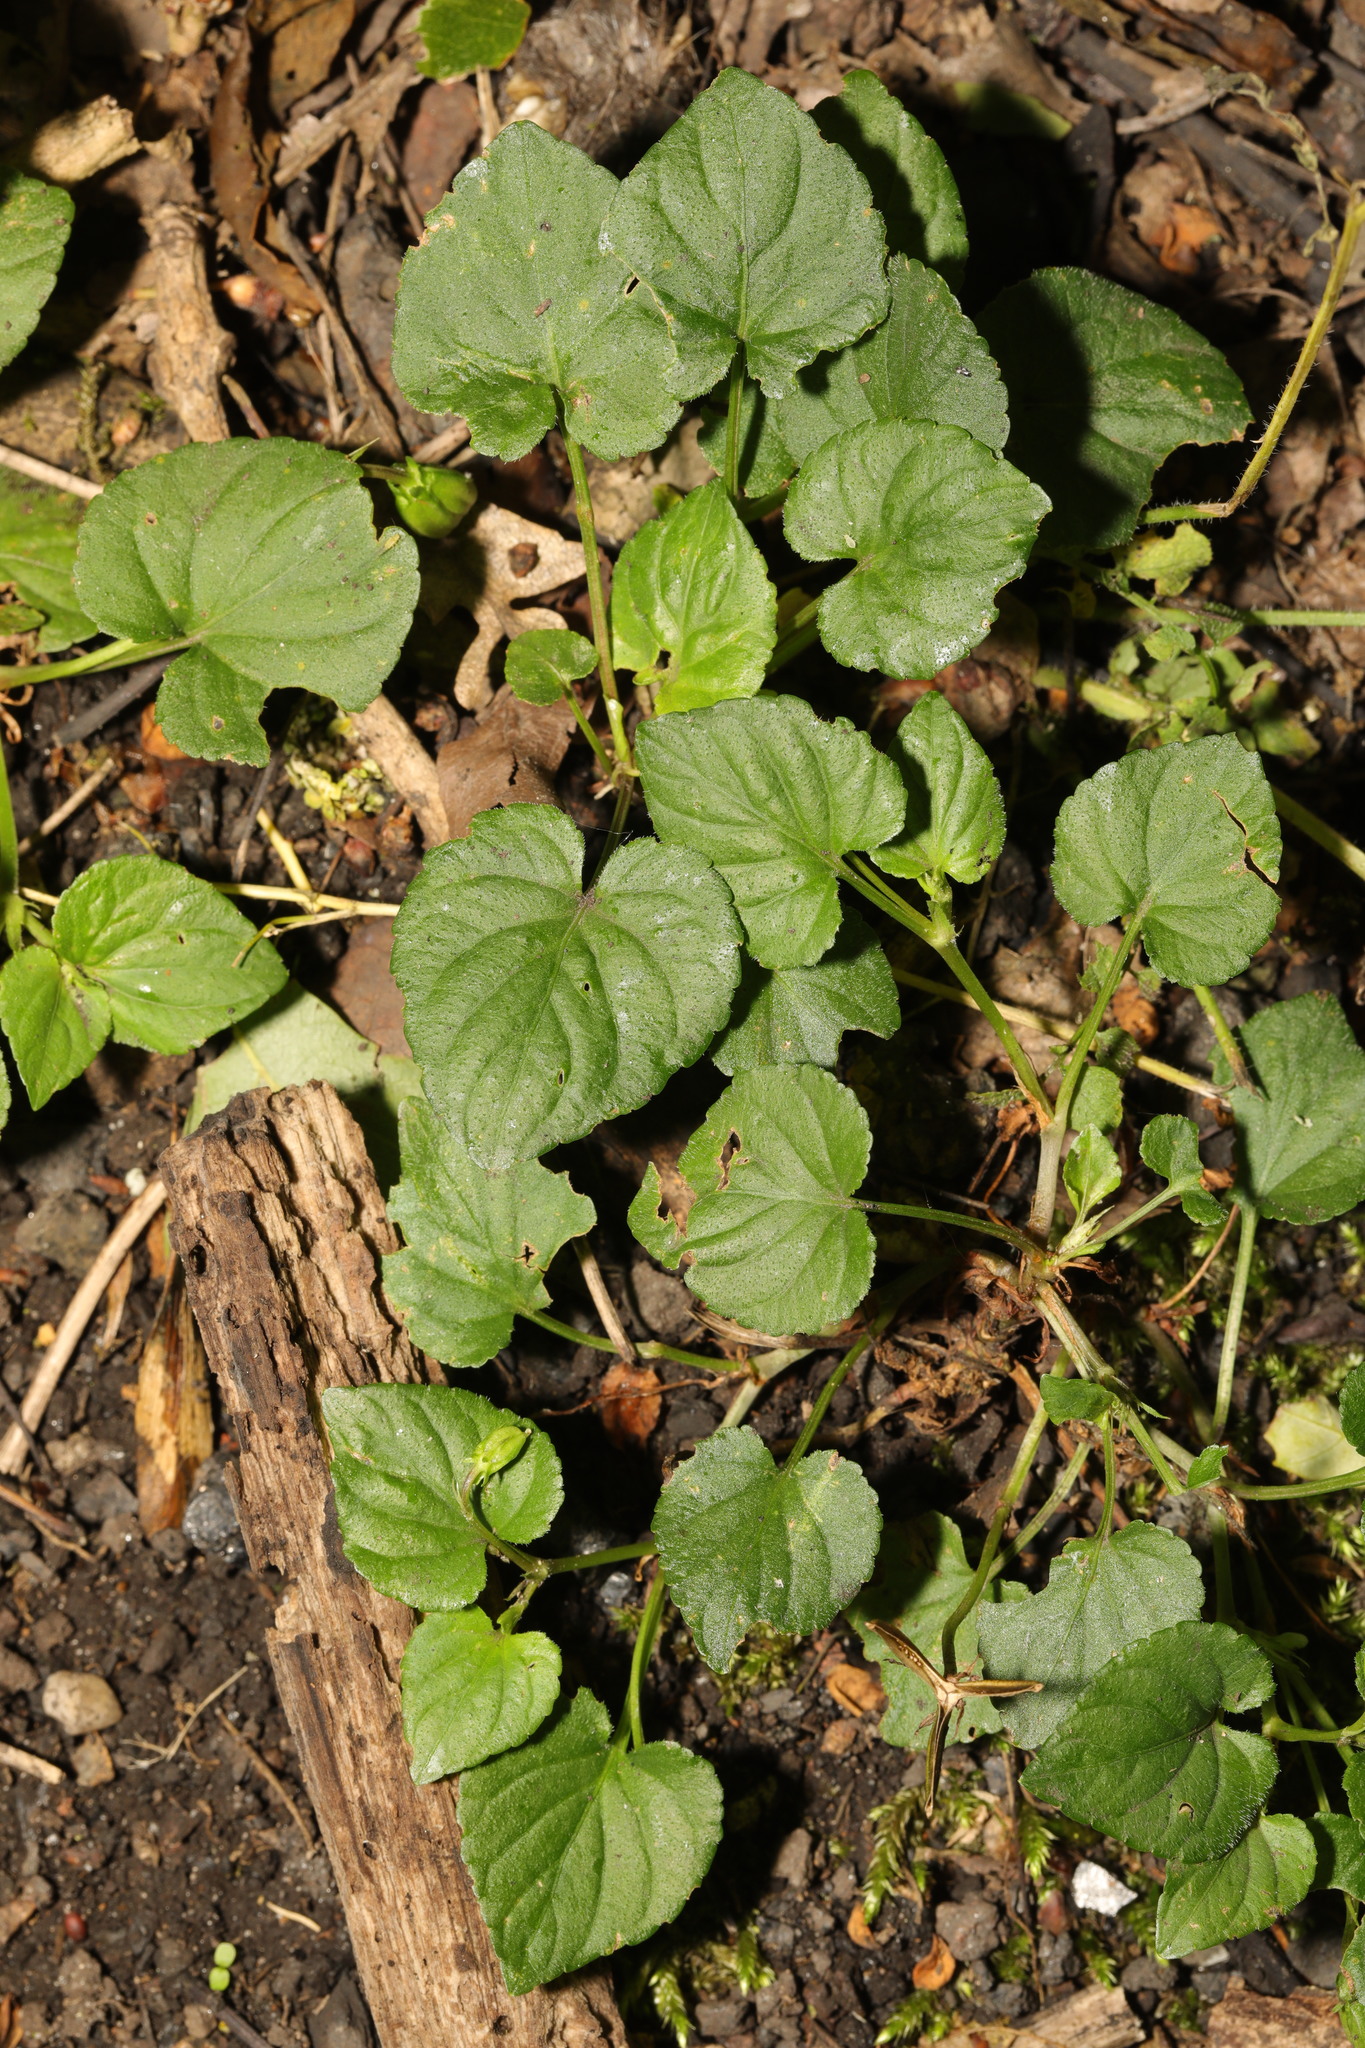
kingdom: Plantae
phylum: Tracheophyta
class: Magnoliopsida
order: Malpighiales
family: Violaceae
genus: Viola
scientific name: Viola riviniana
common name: Common dog-violet
